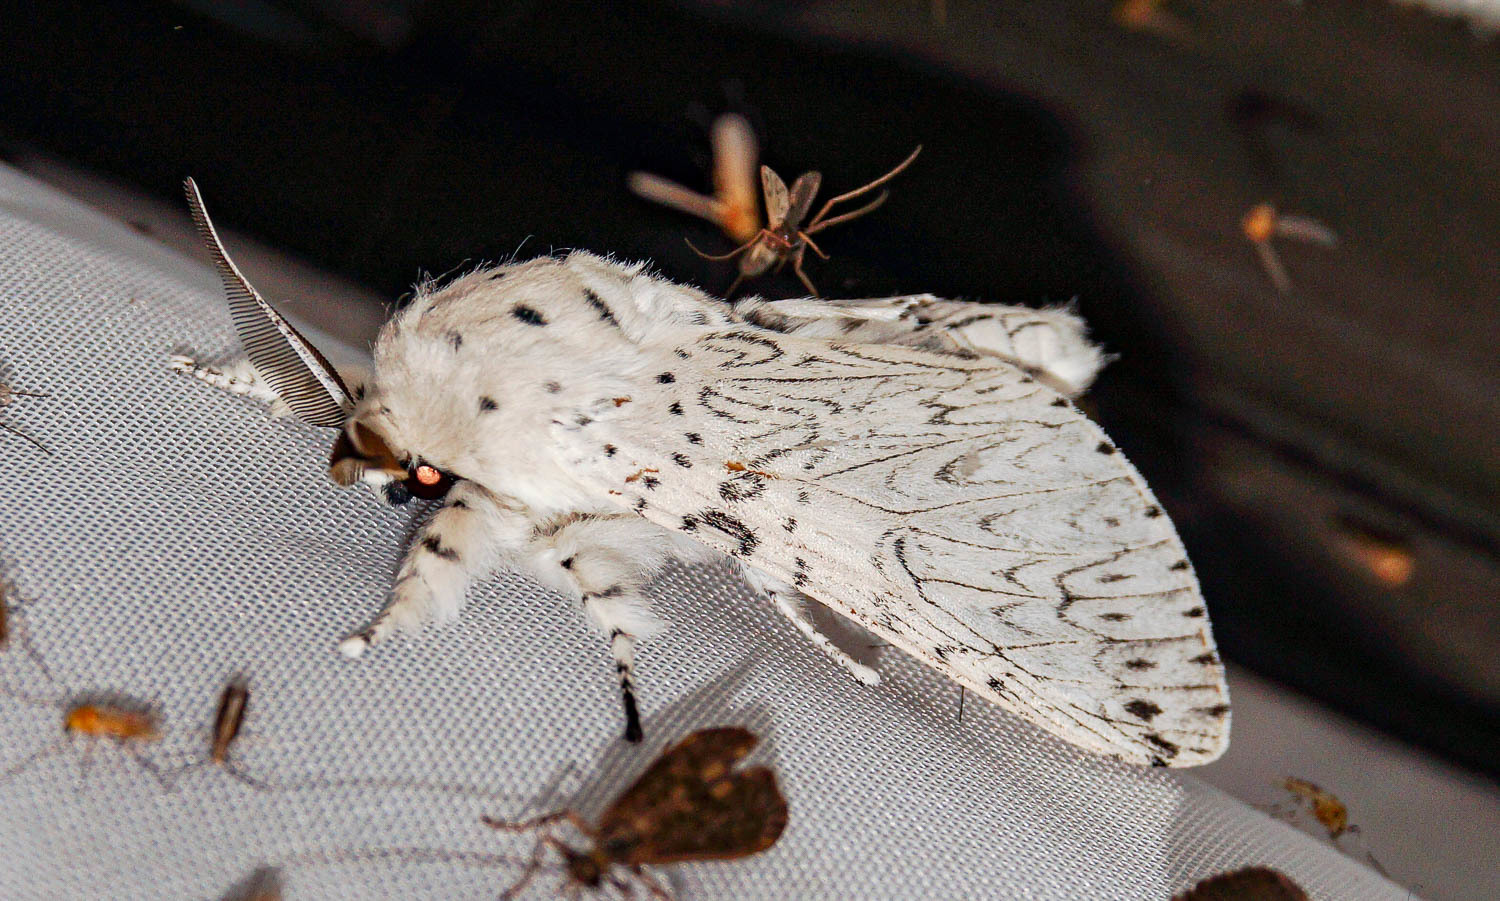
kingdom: Animalia
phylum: Arthropoda
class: Insecta
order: Lepidoptera
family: Notodontidae
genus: Cerura
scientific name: Cerura erminea
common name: Lesser puss moth
